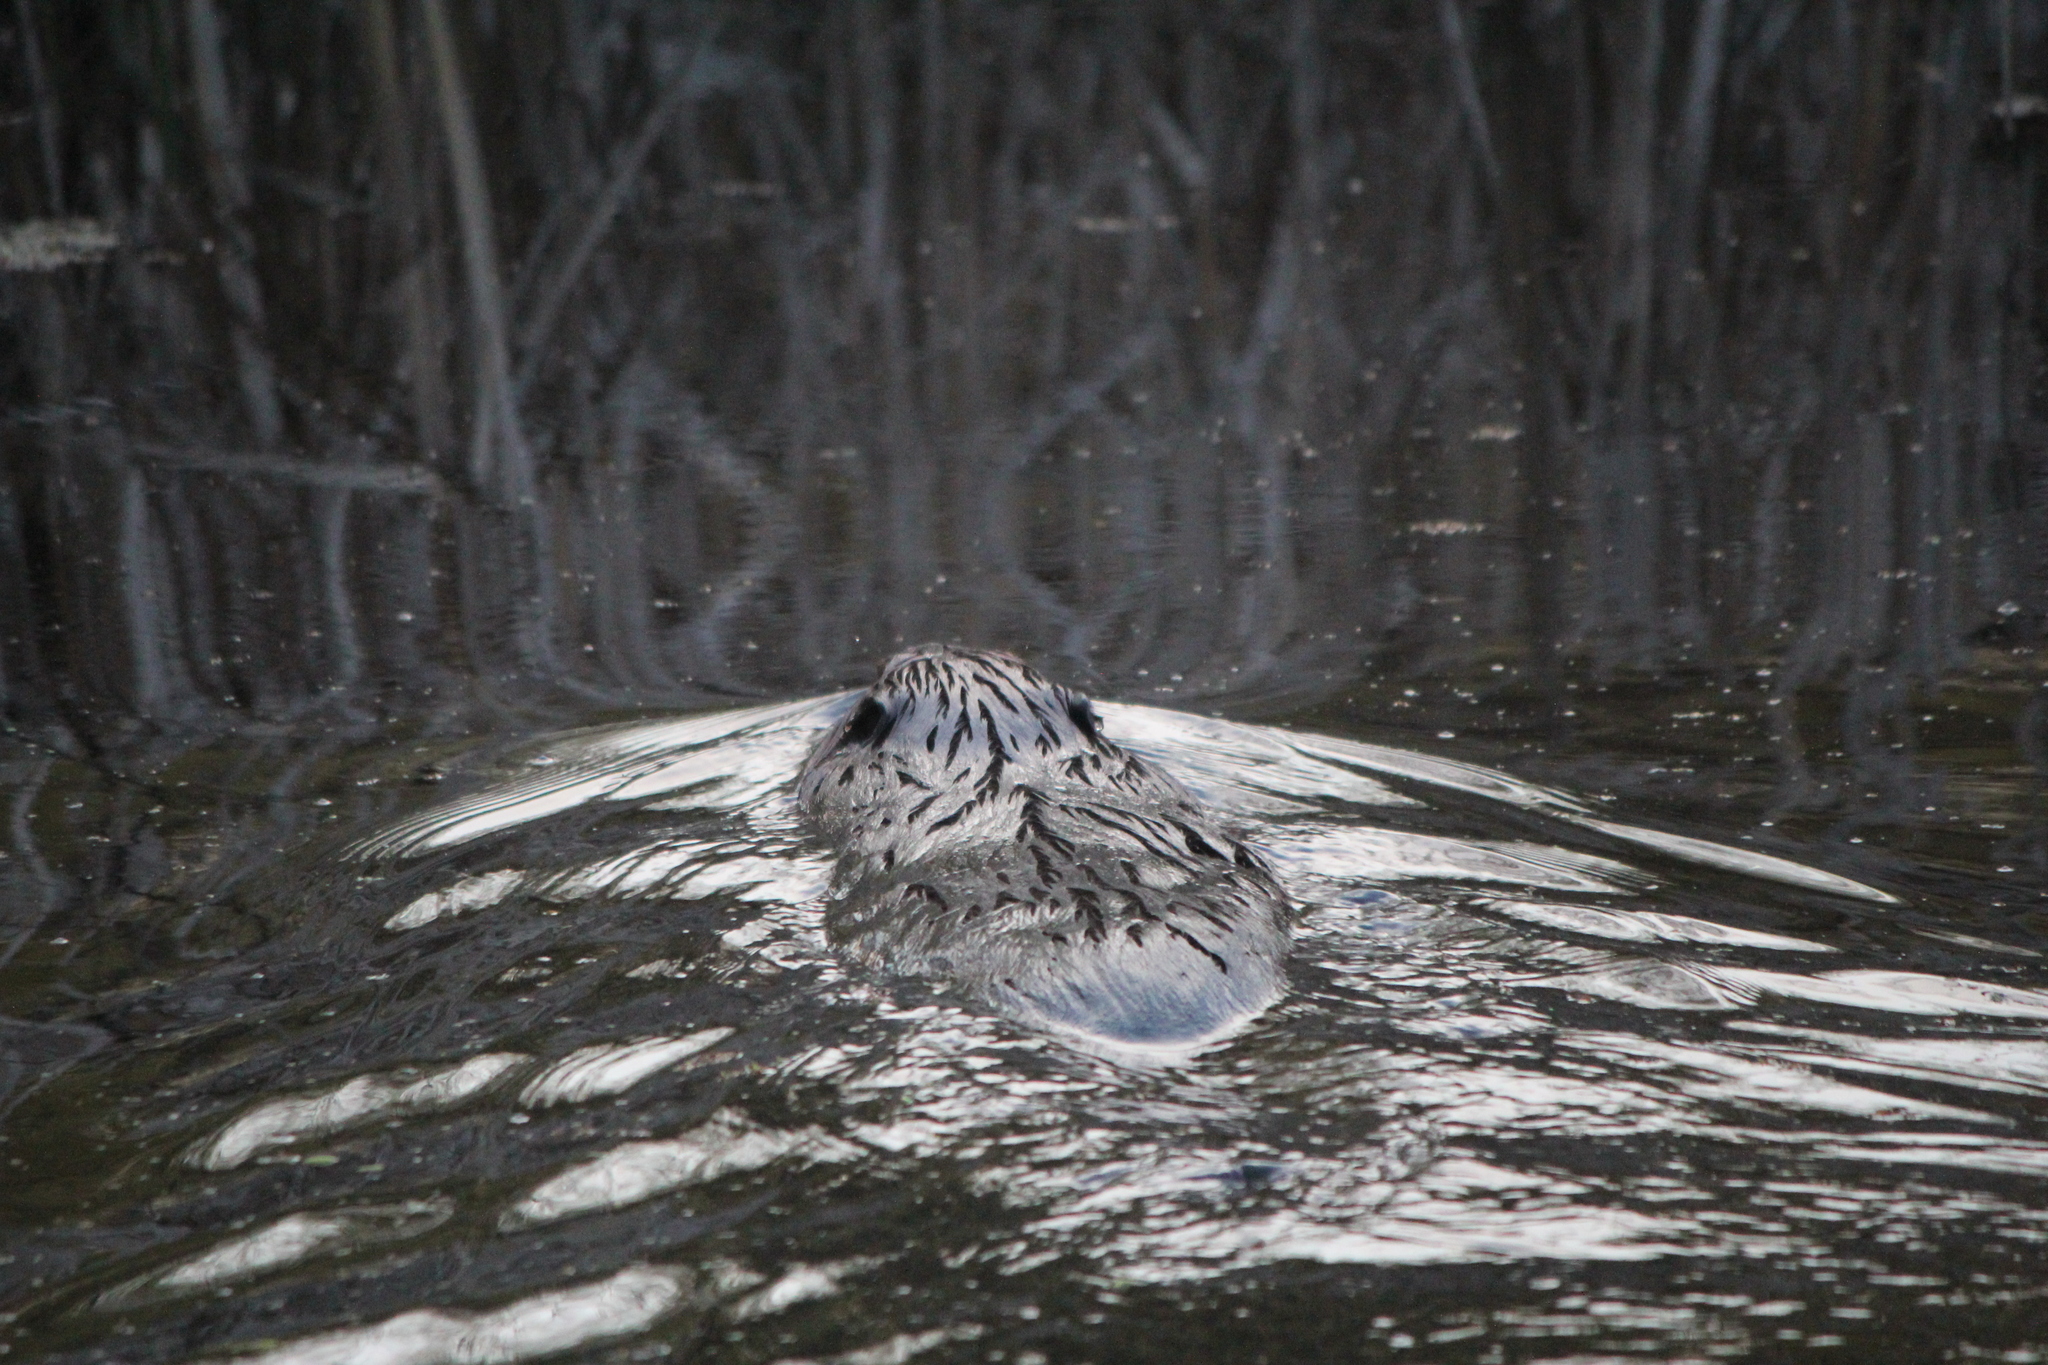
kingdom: Animalia
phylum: Chordata
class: Mammalia
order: Rodentia
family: Castoridae
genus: Castor
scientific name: Castor canadensis
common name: American beaver
